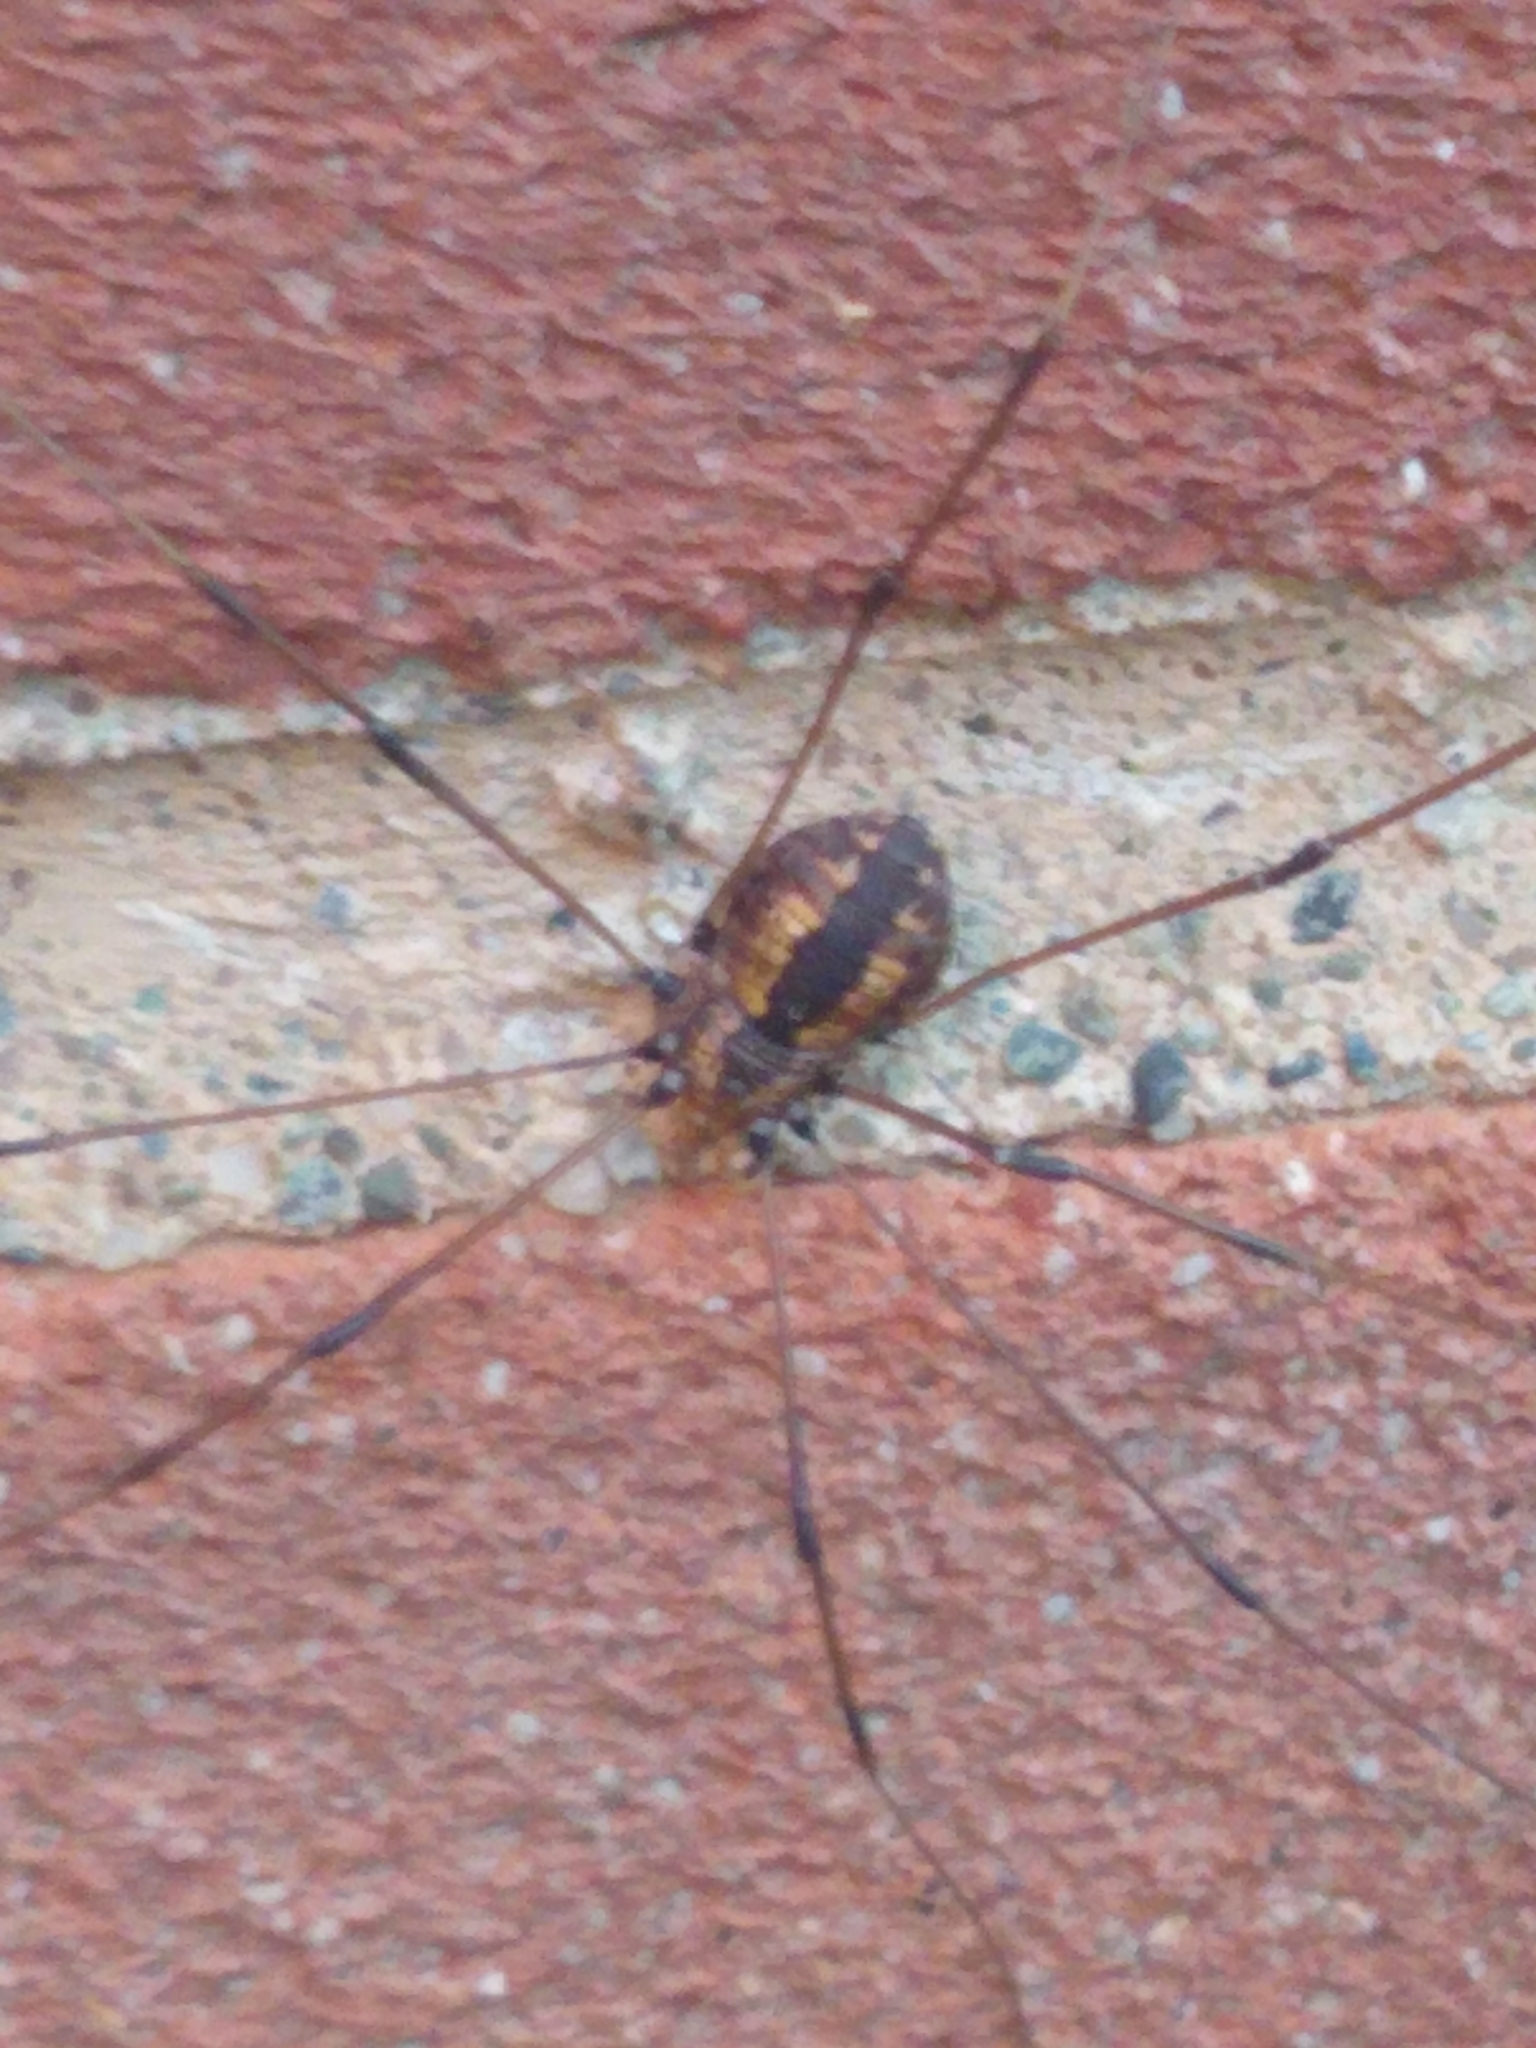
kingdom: Animalia
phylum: Arthropoda
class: Arachnida
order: Opiliones
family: Sclerosomatidae
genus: Leiobunum
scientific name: Leiobunum vittatum
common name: Eastern harvestman
